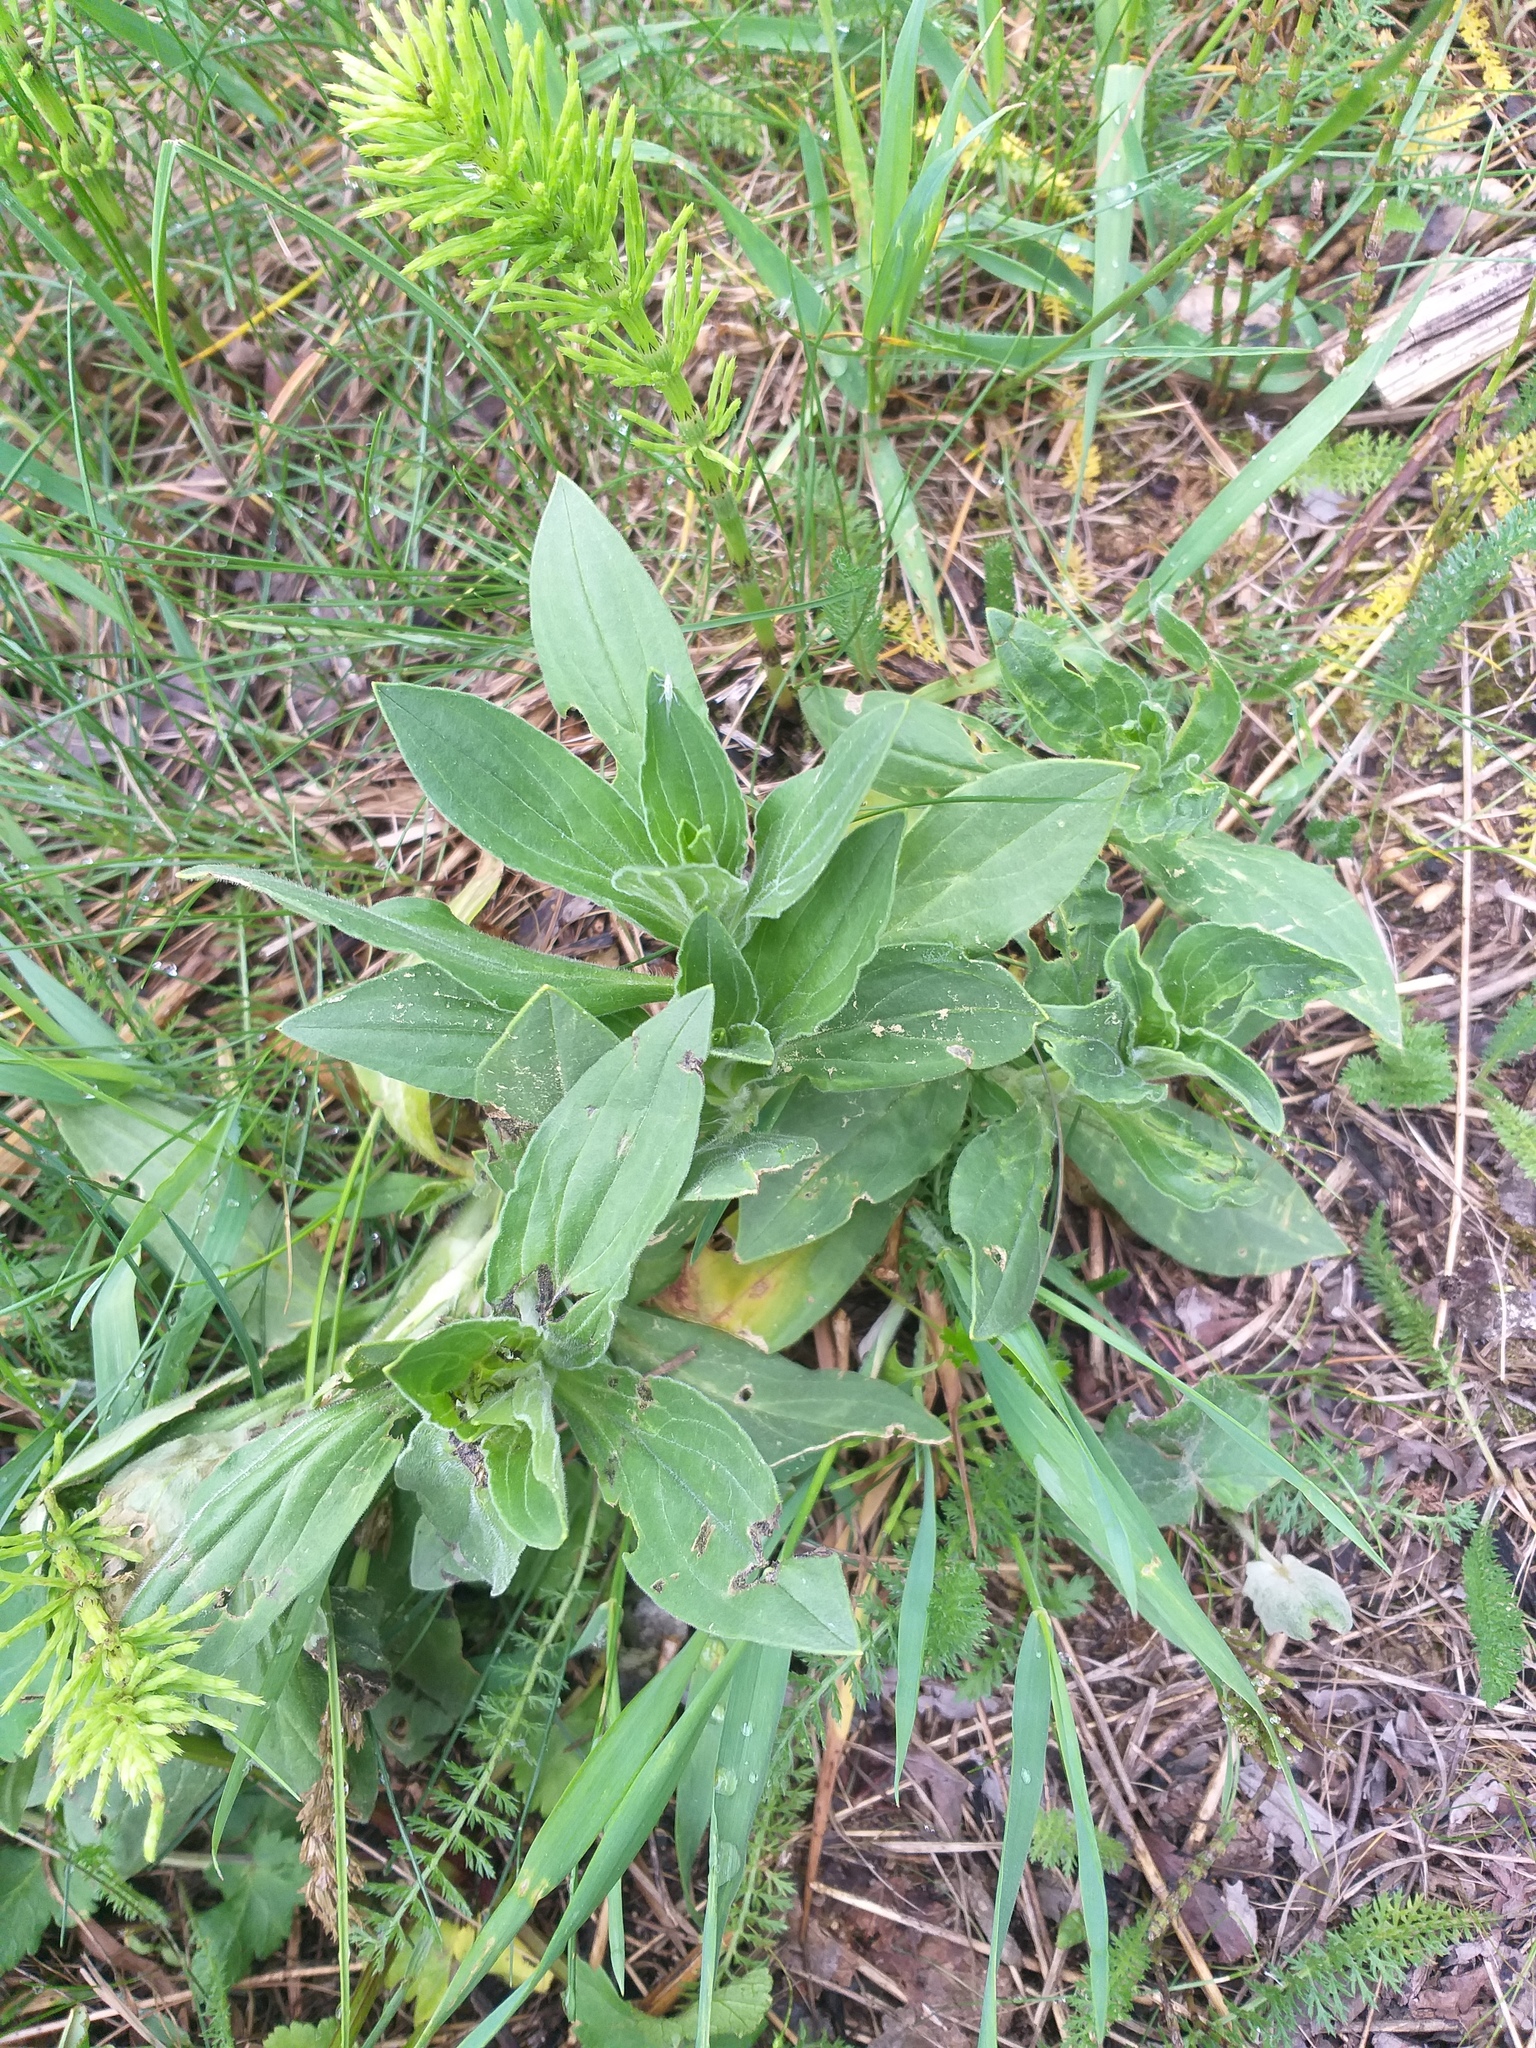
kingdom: Plantae
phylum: Tracheophyta
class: Magnoliopsida
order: Caryophyllales
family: Caryophyllaceae
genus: Silene
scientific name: Silene latifolia
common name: White campion
